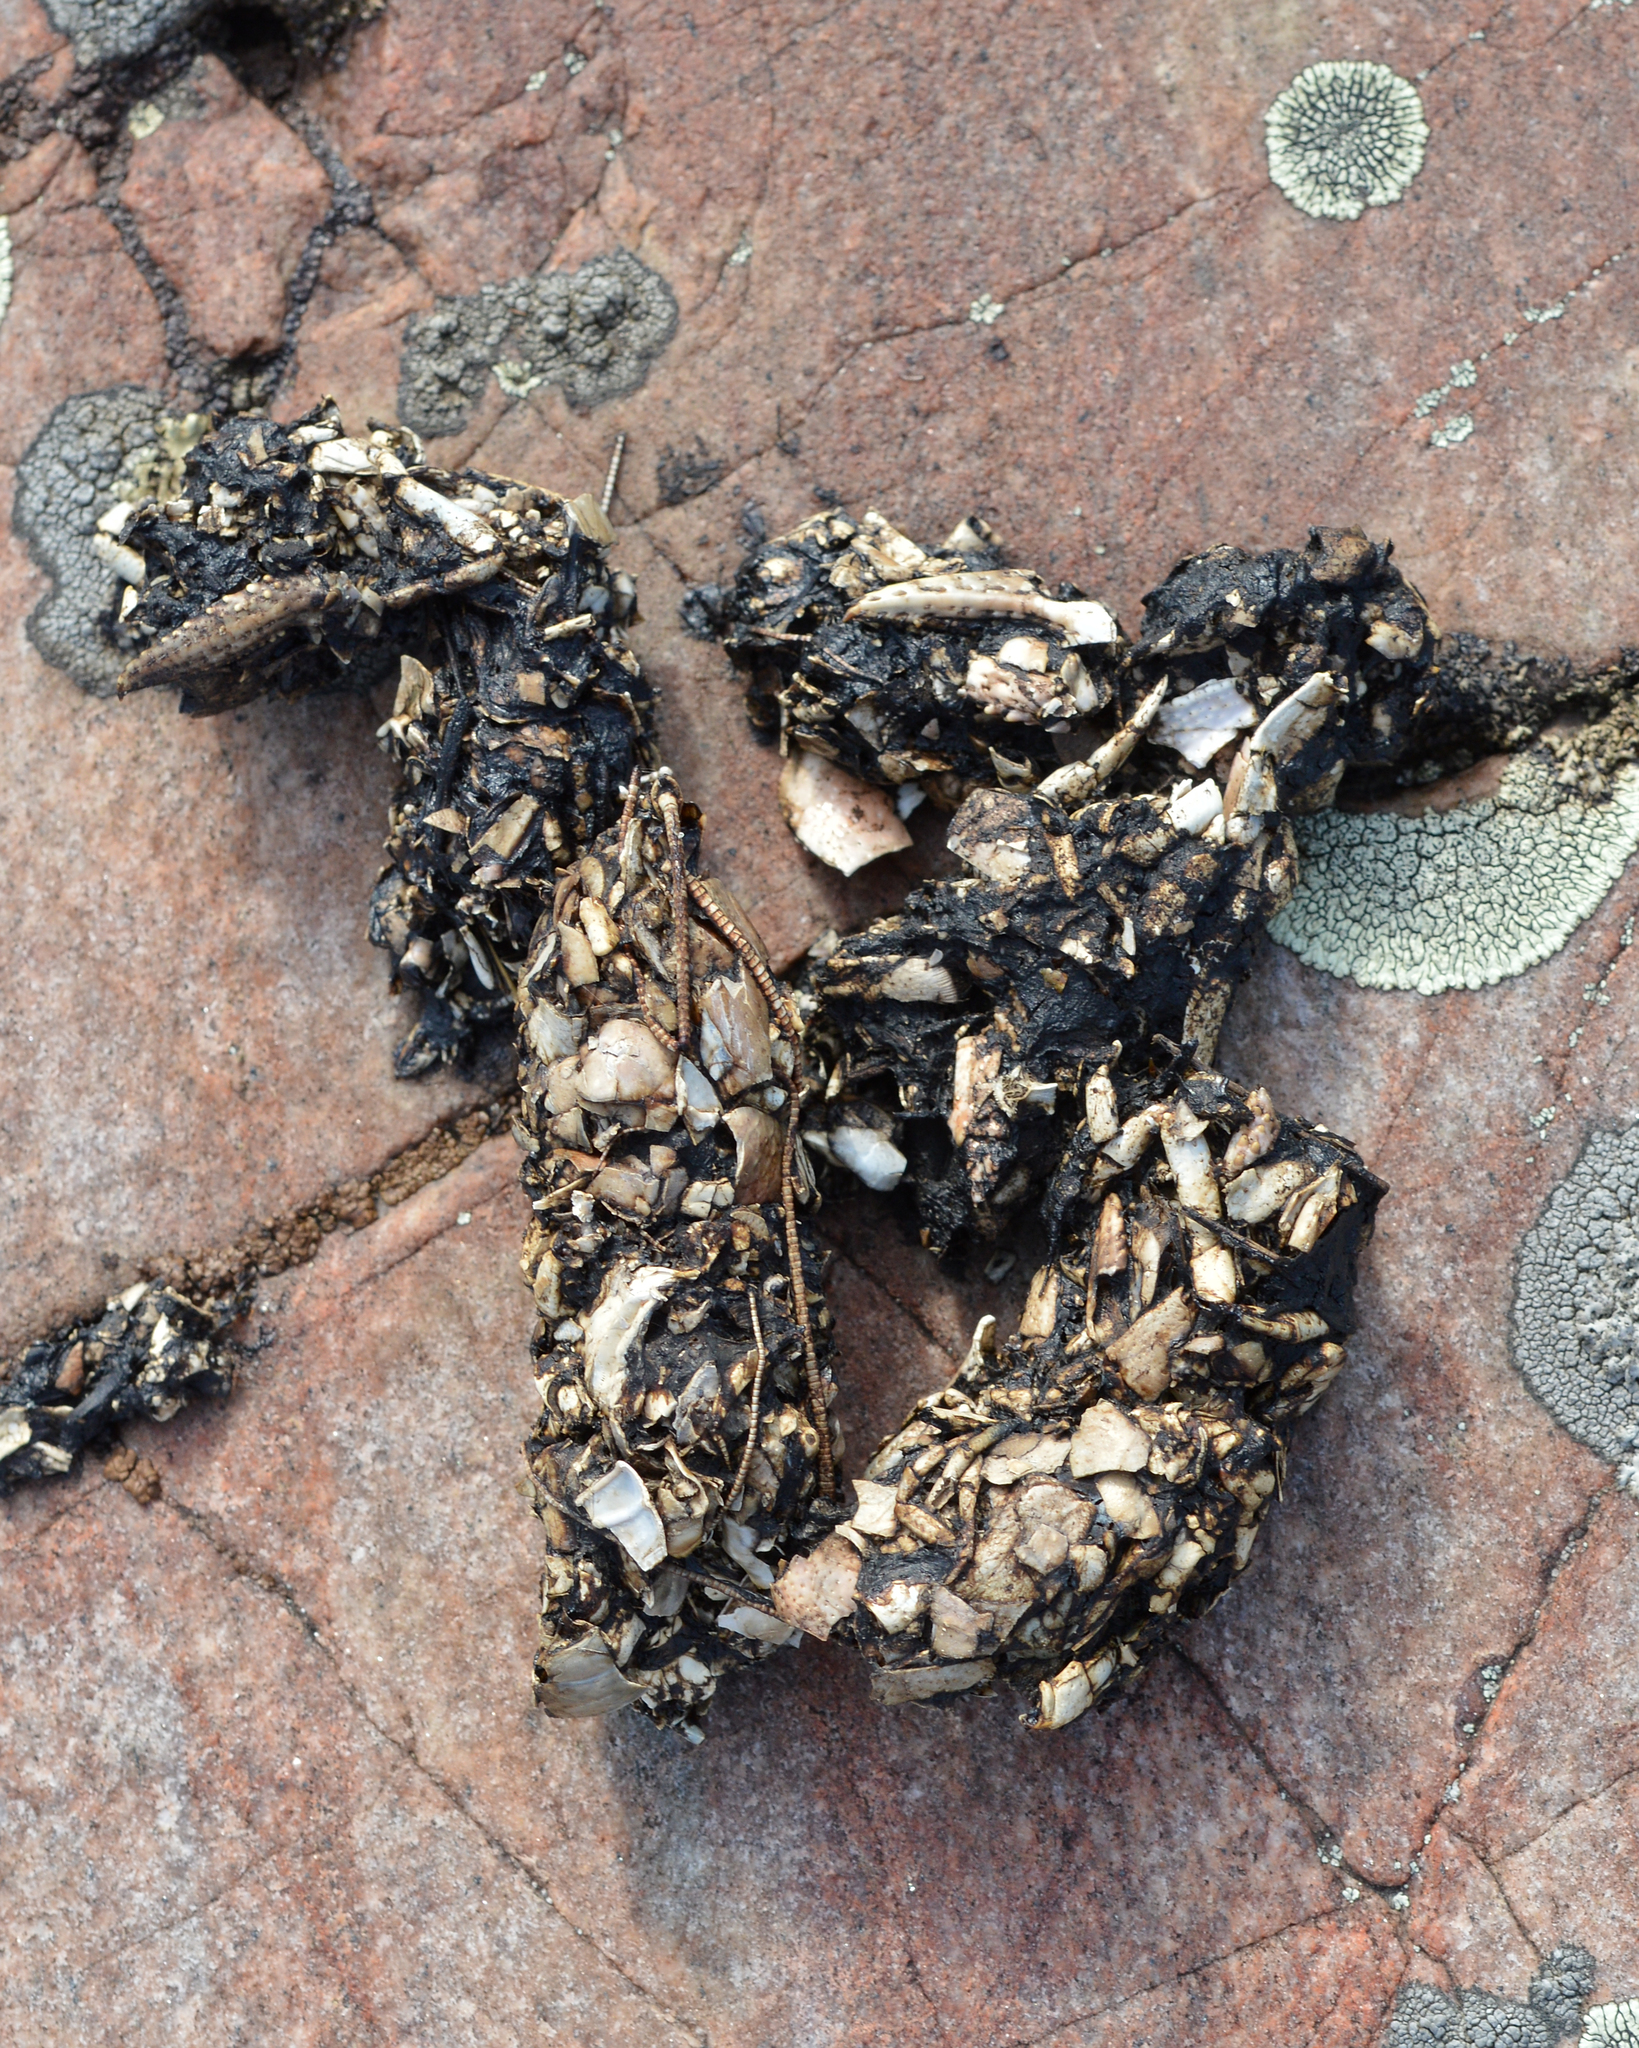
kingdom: Animalia
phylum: Chordata
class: Mammalia
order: Carnivora
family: Mustelidae
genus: Lontra
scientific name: Lontra canadensis
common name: North american river otter
